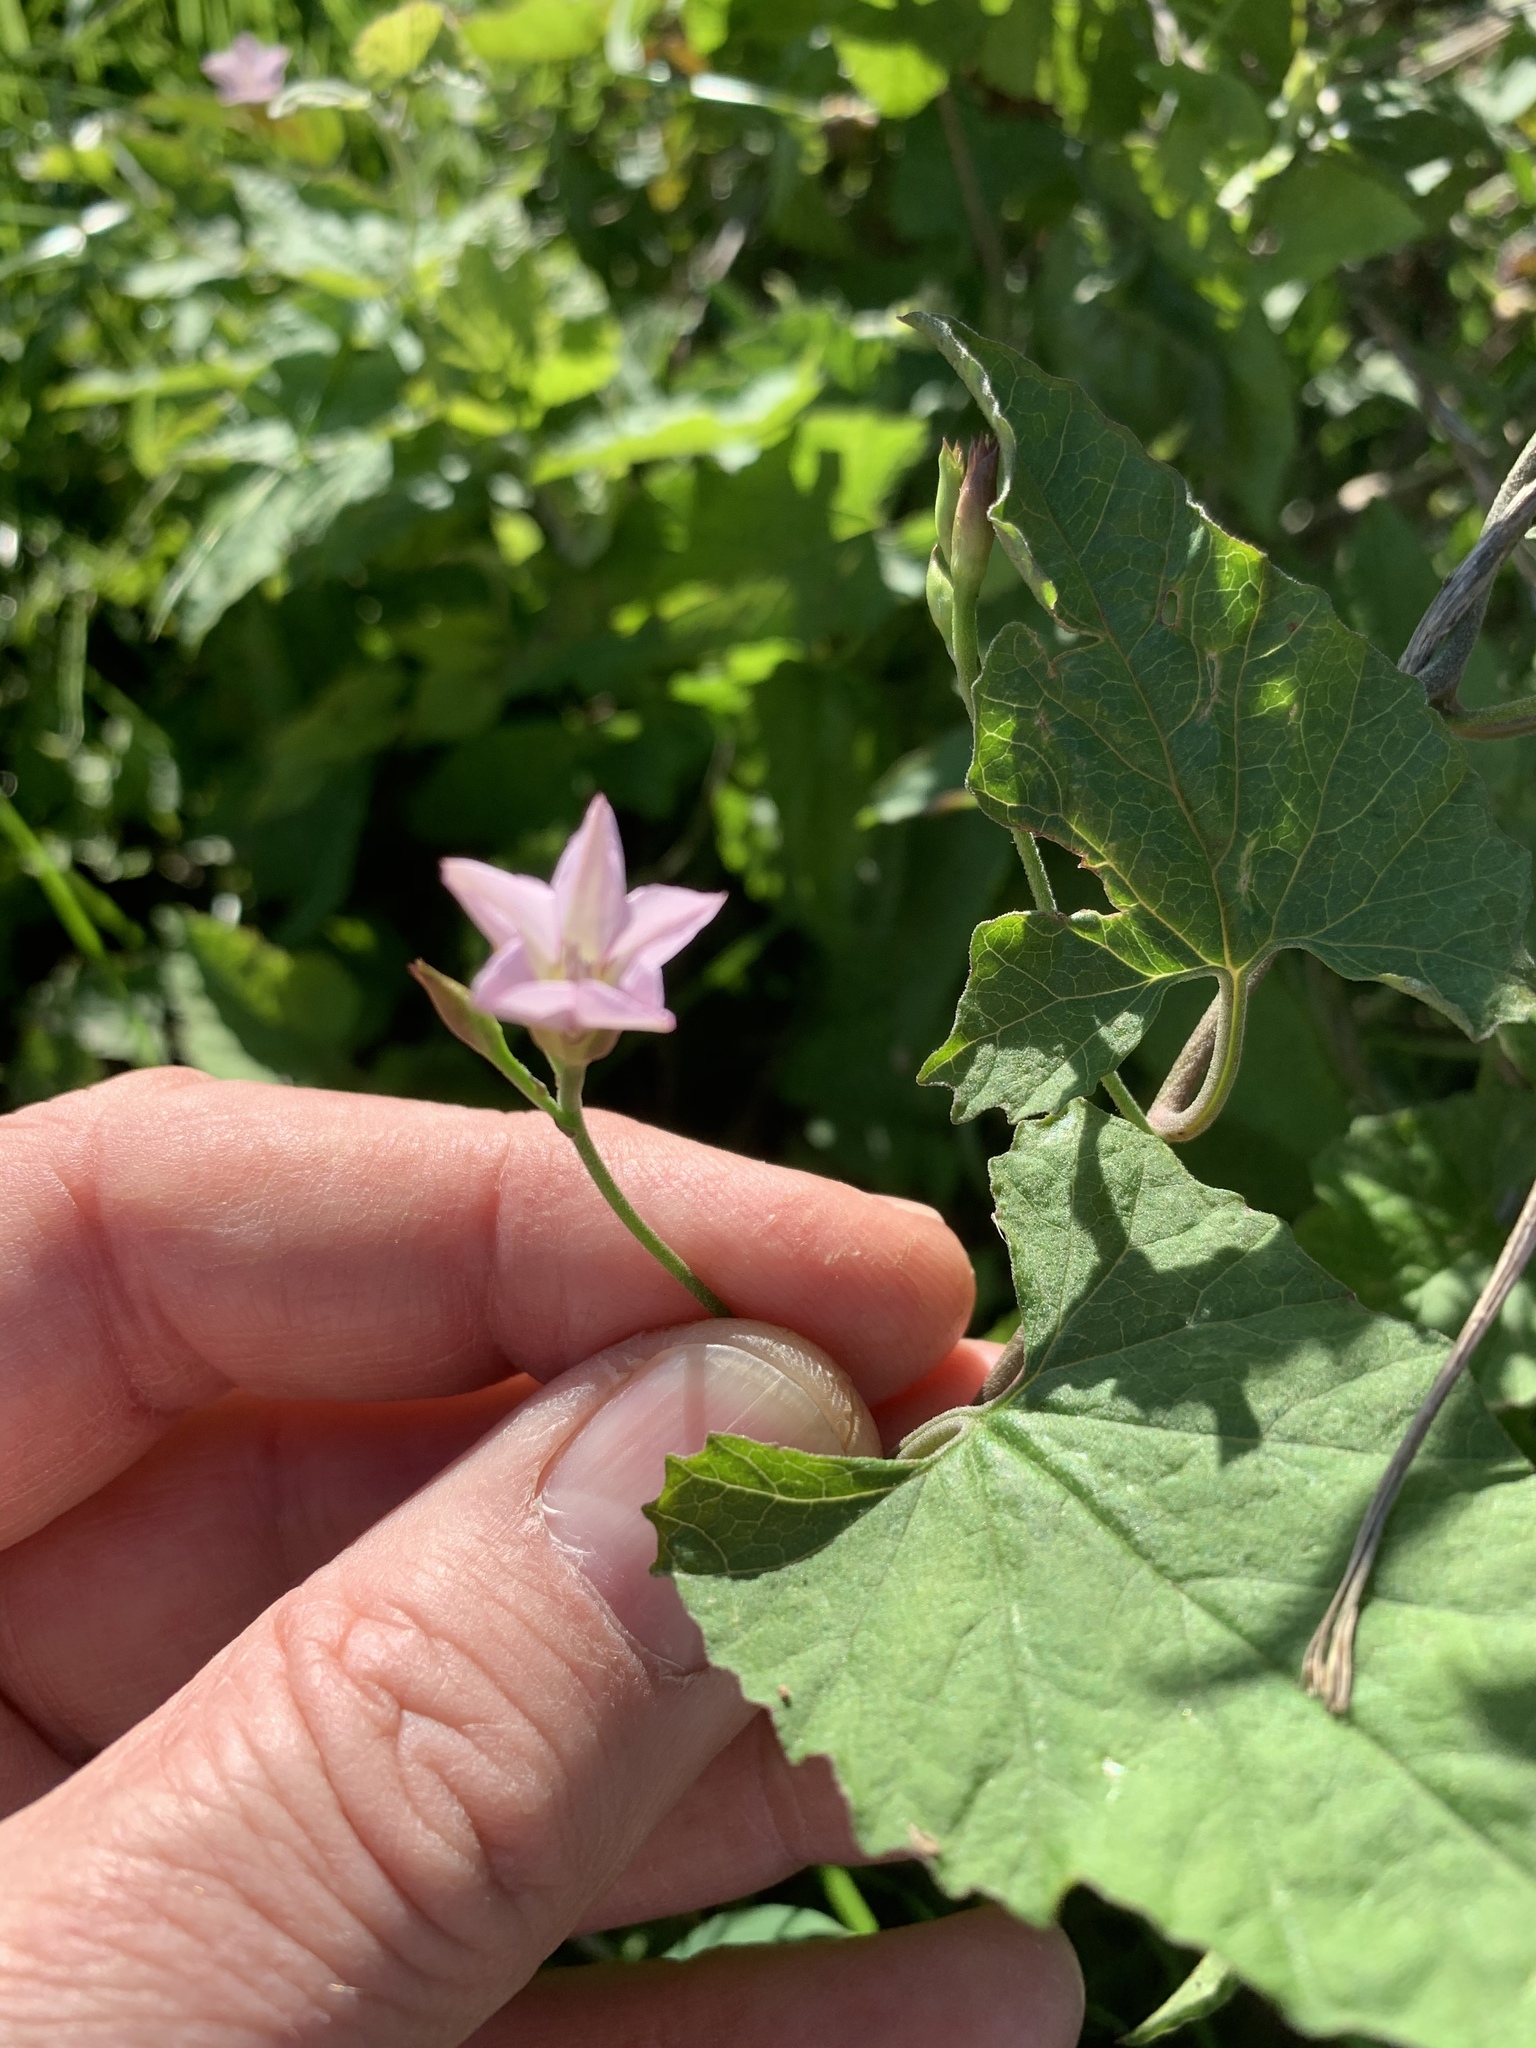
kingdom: Plantae
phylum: Tracheophyta
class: Magnoliopsida
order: Solanales
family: Convolvulaceae
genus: Convolvulus
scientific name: Convolvulus farinosus
